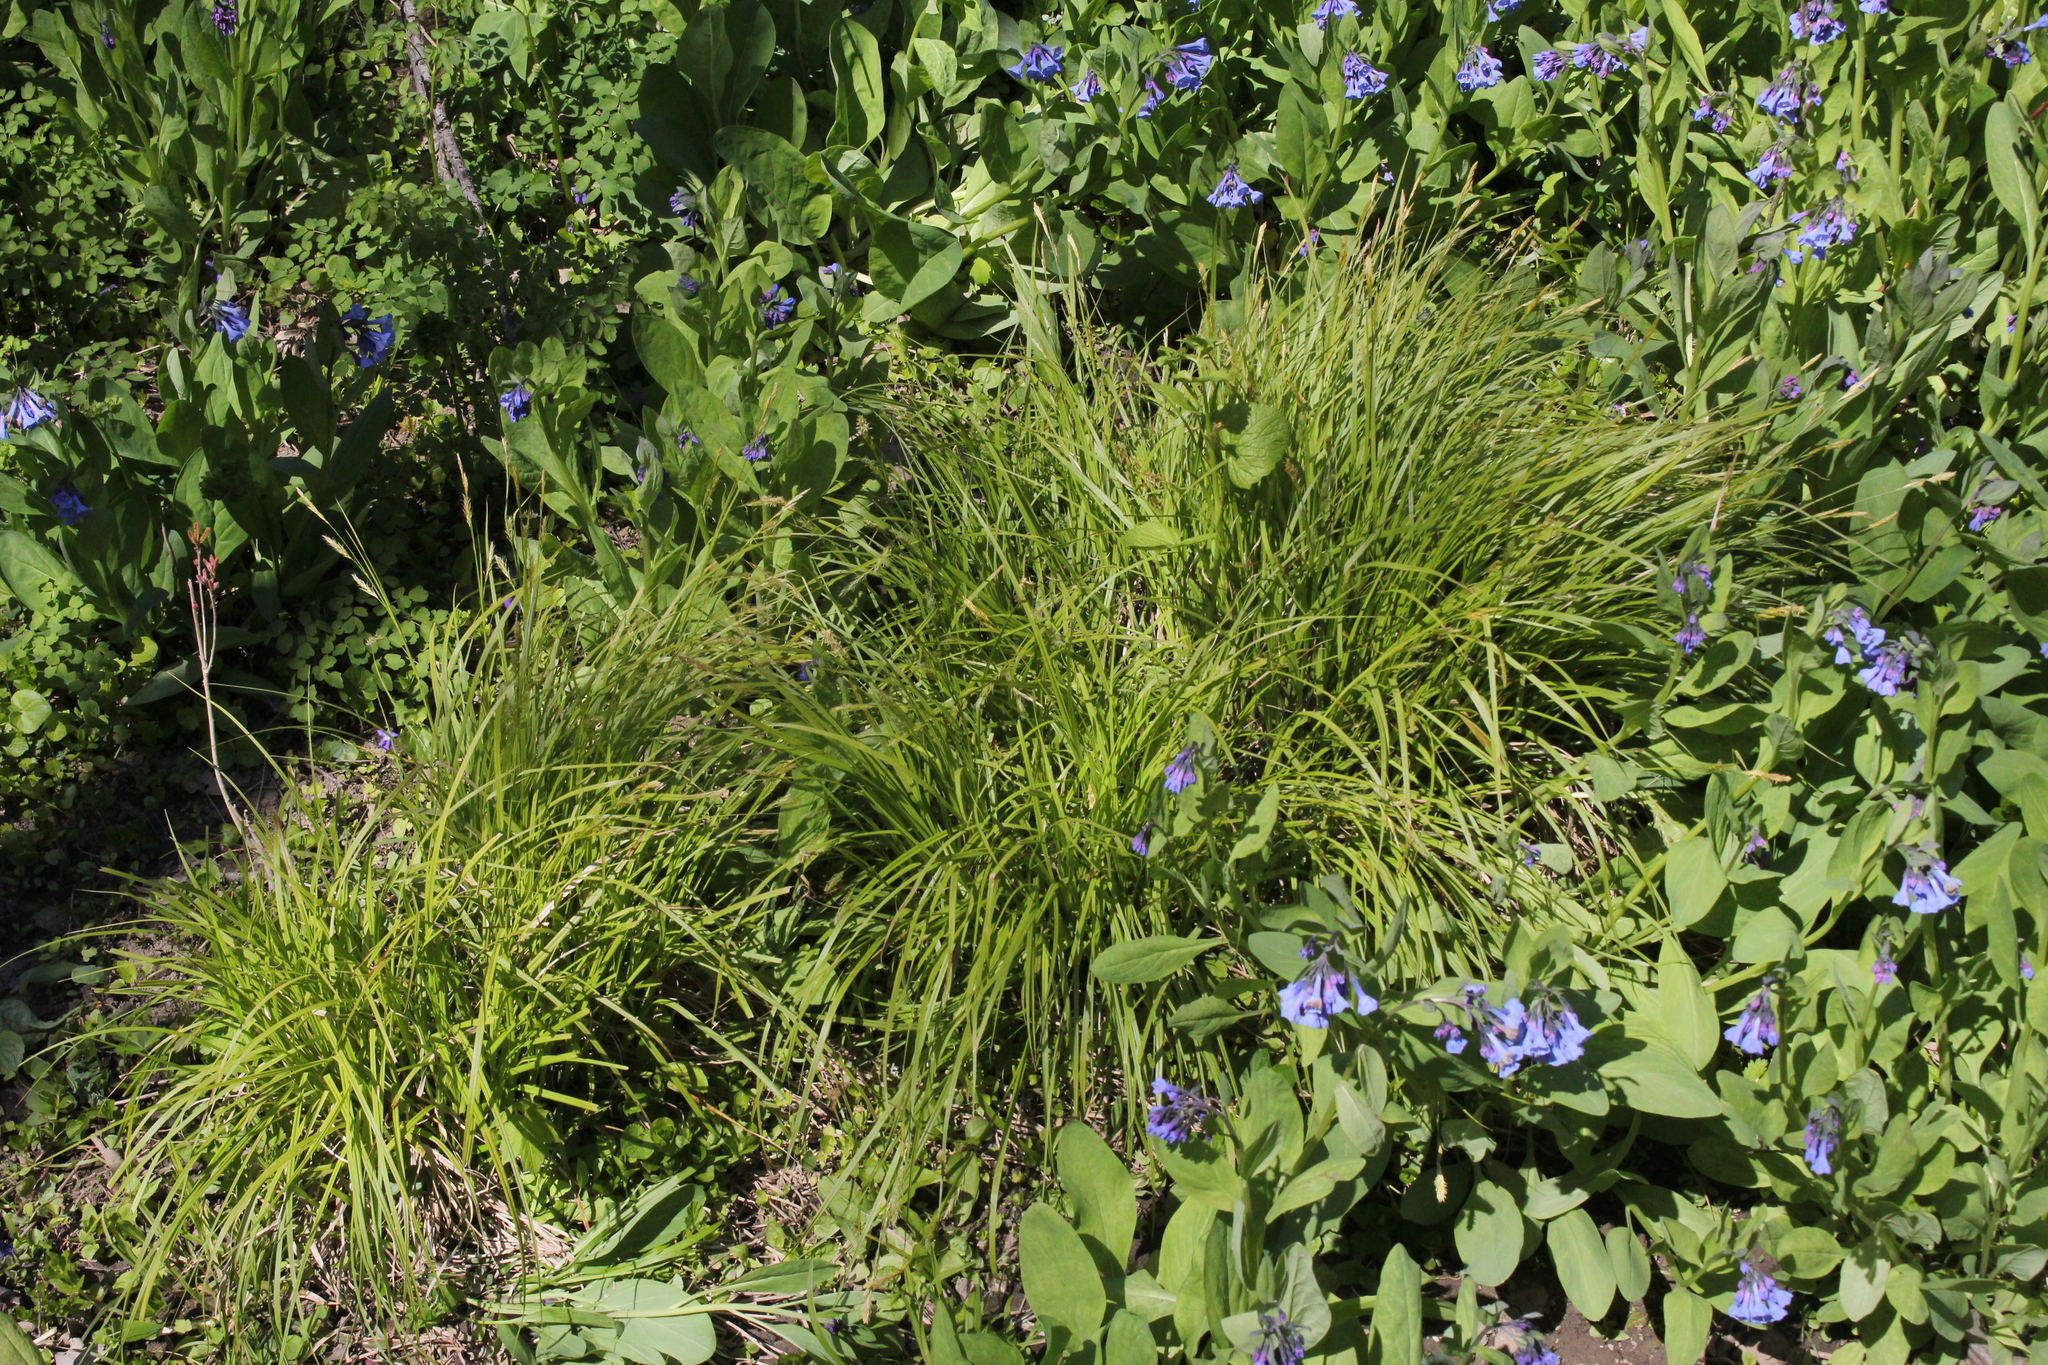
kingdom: Plantae
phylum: Tracheophyta
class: Liliopsida
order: Poales
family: Cyperaceae
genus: Carex
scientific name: Carex sprengelii
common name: Long-beaked sedge
